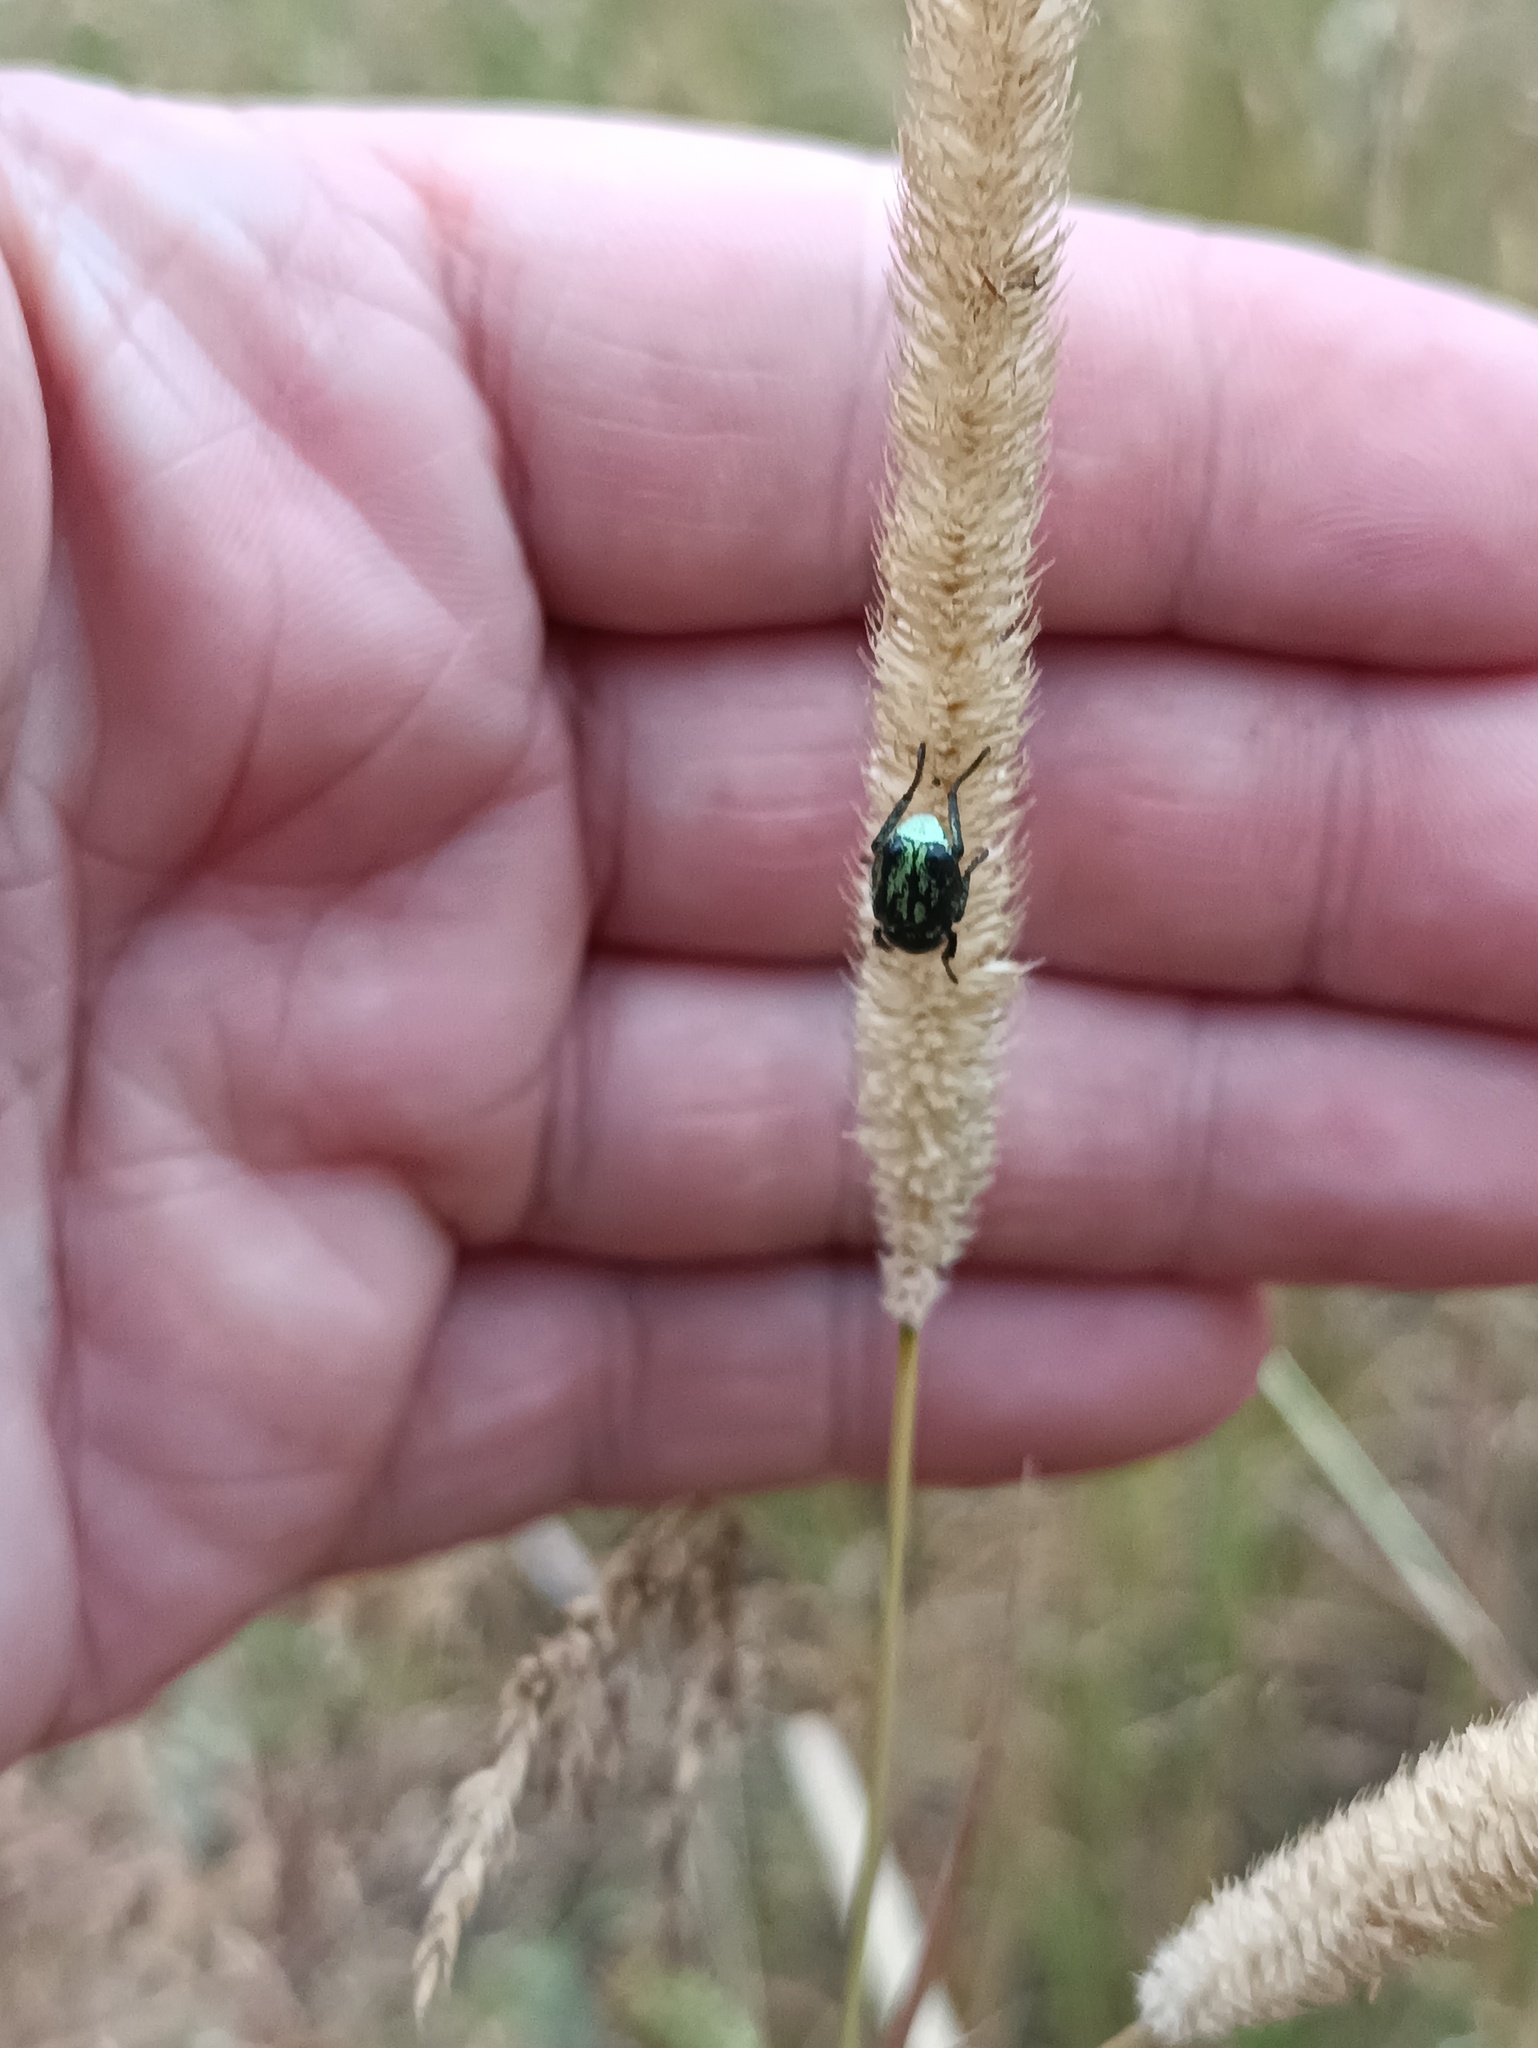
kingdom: Animalia
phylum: Arthropoda
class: Insecta
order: Coleoptera
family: Scarabaeidae
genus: Hoplia
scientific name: Hoplia parvula
